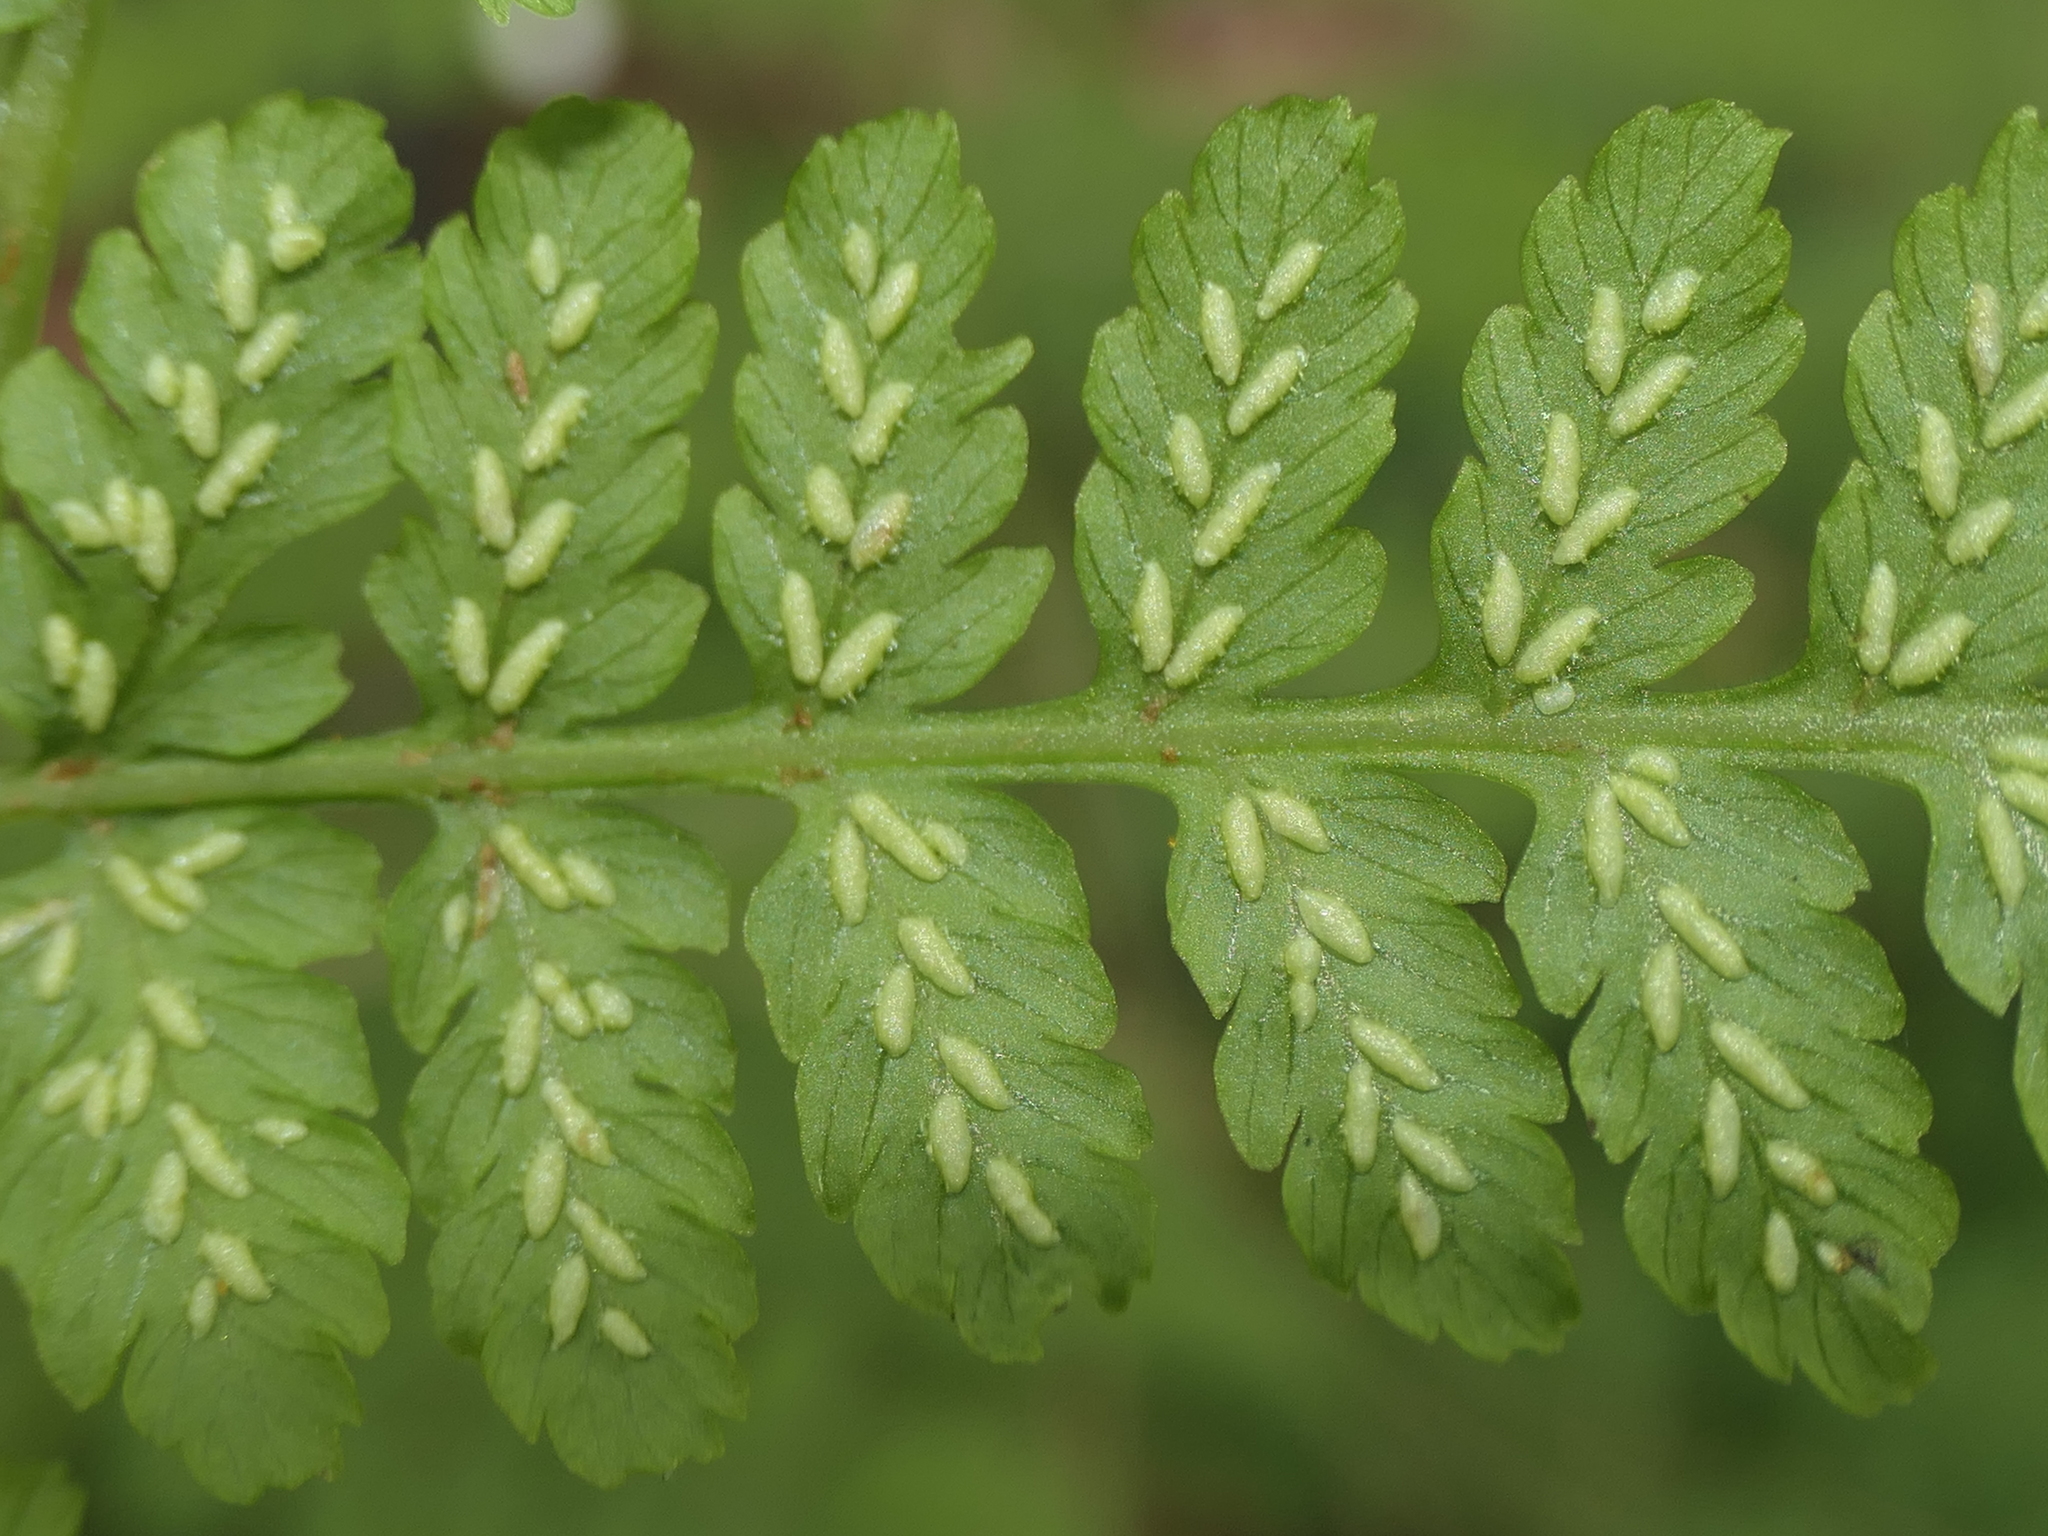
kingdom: Plantae
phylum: Tracheophyta
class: Polypodiopsida
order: Polypodiales
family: Athyriaceae
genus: Diplazium
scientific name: Diplazium australe
